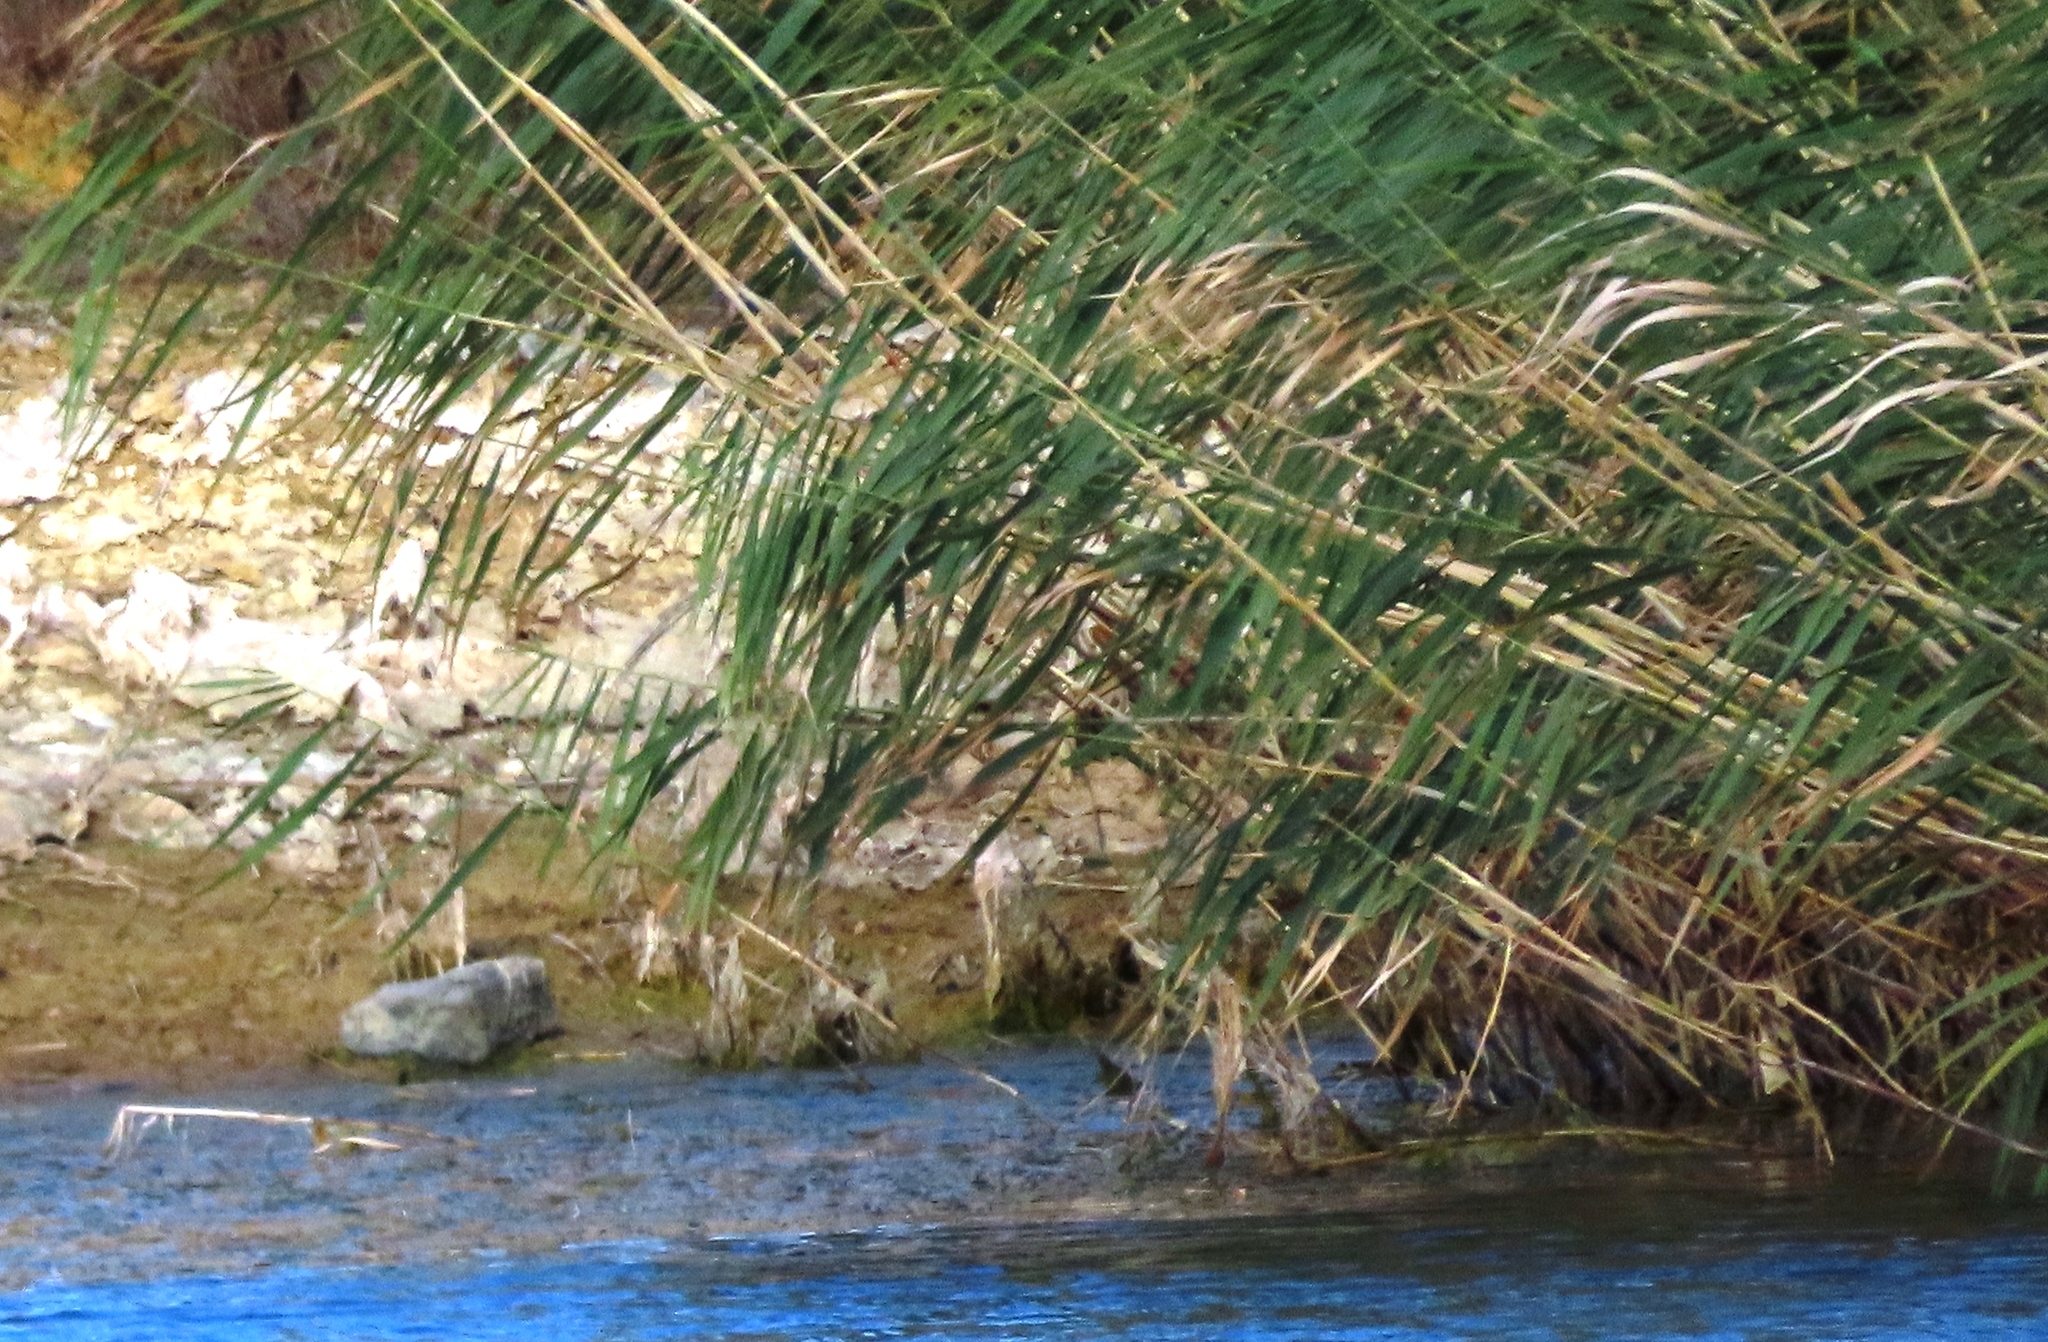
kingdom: Plantae
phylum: Tracheophyta
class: Liliopsida
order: Poales
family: Poaceae
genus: Arundo
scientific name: Arundo donax
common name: Giant reed
